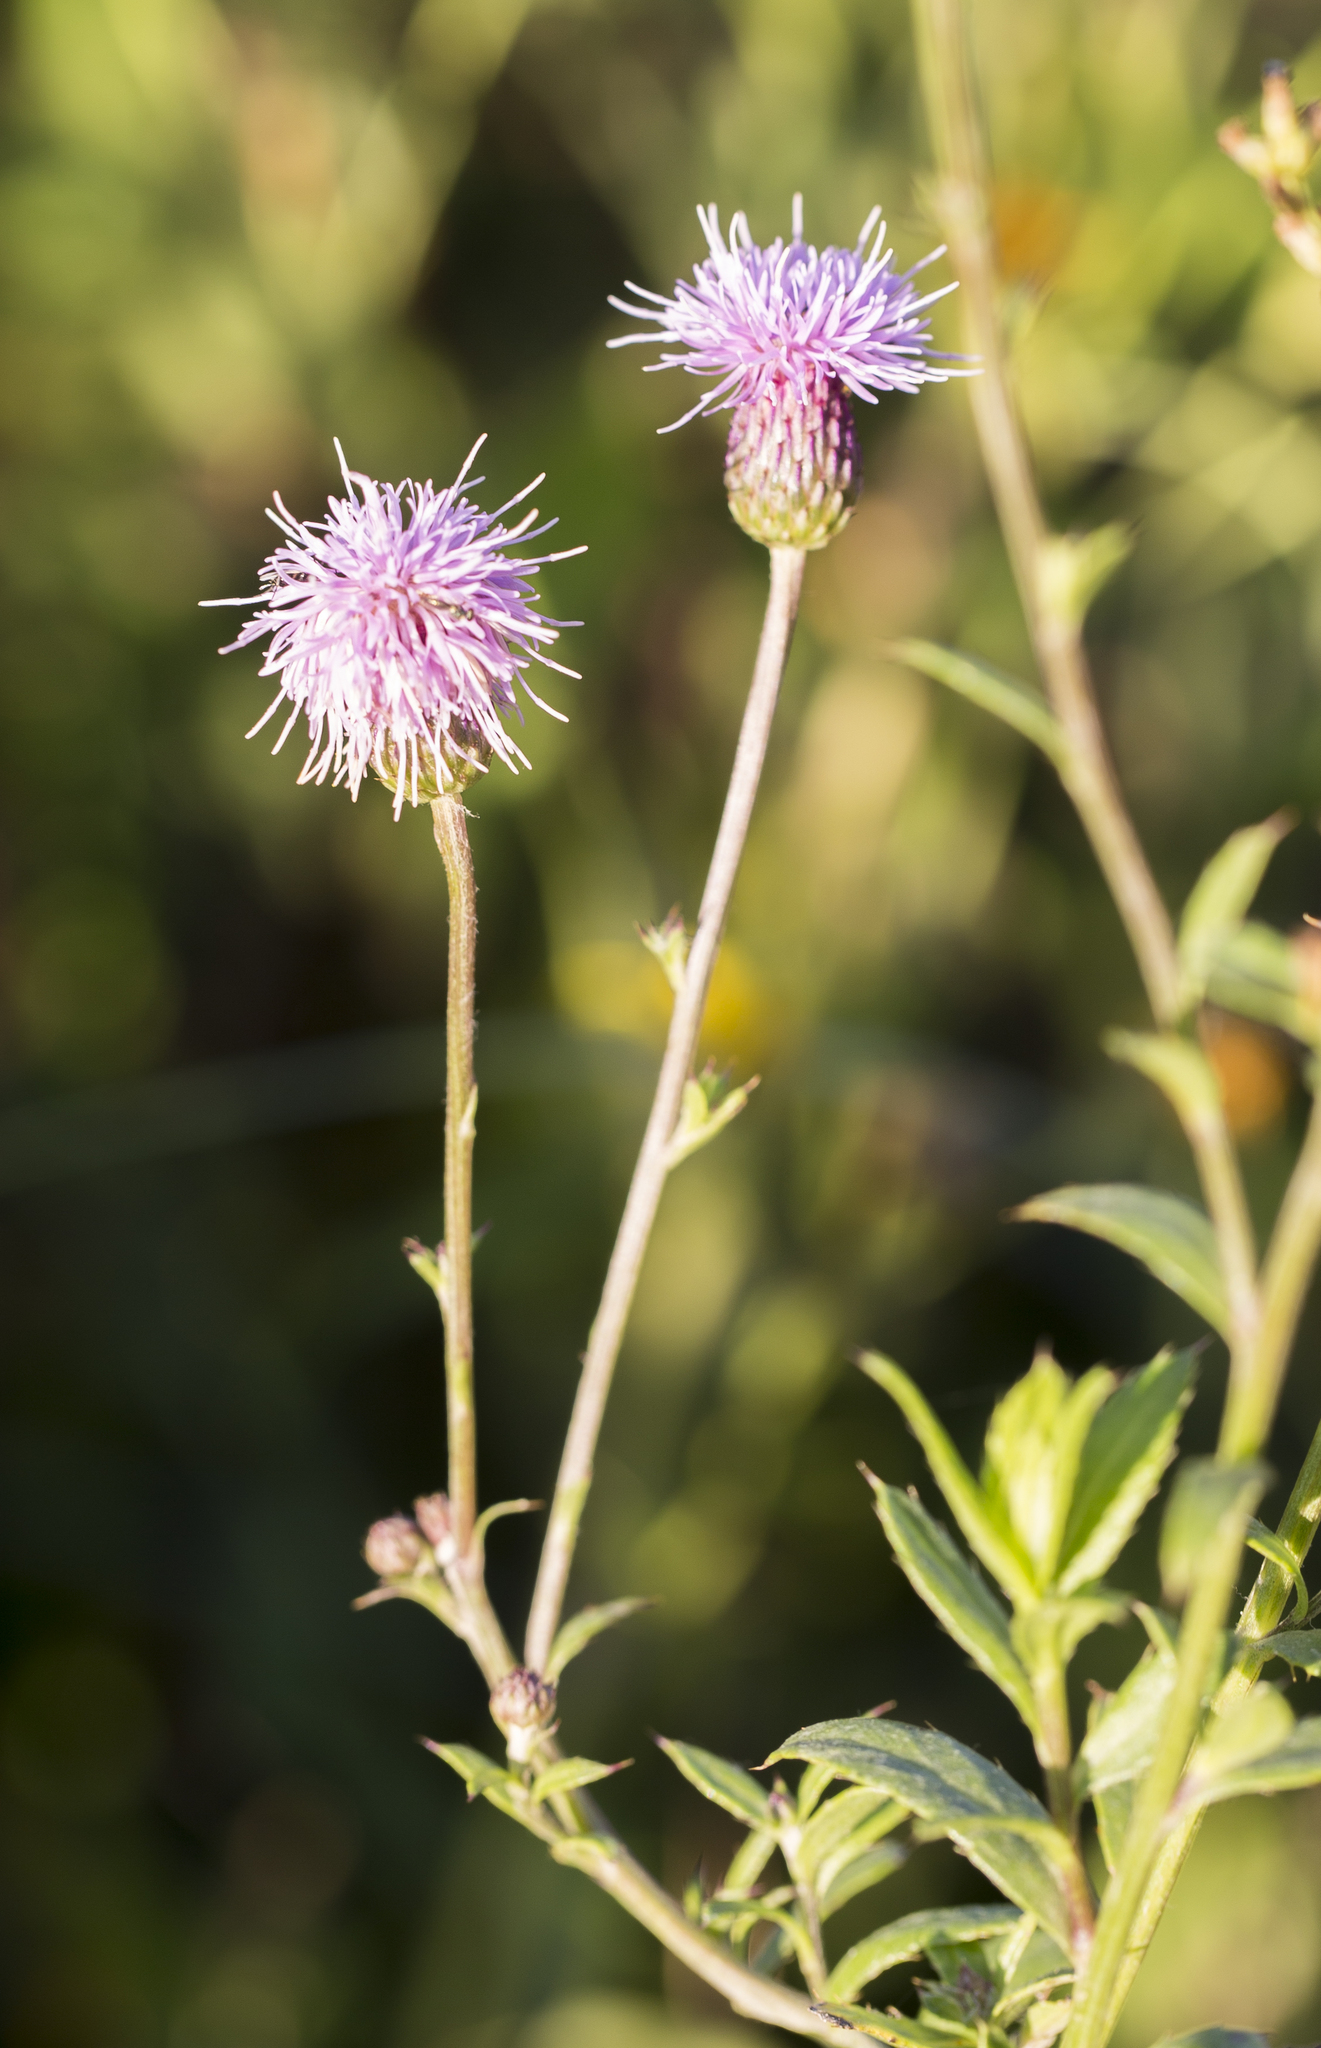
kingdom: Plantae
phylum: Tracheophyta
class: Magnoliopsida
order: Asterales
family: Asteraceae
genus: Cirsium
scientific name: Cirsium arvense
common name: Creeping thistle
